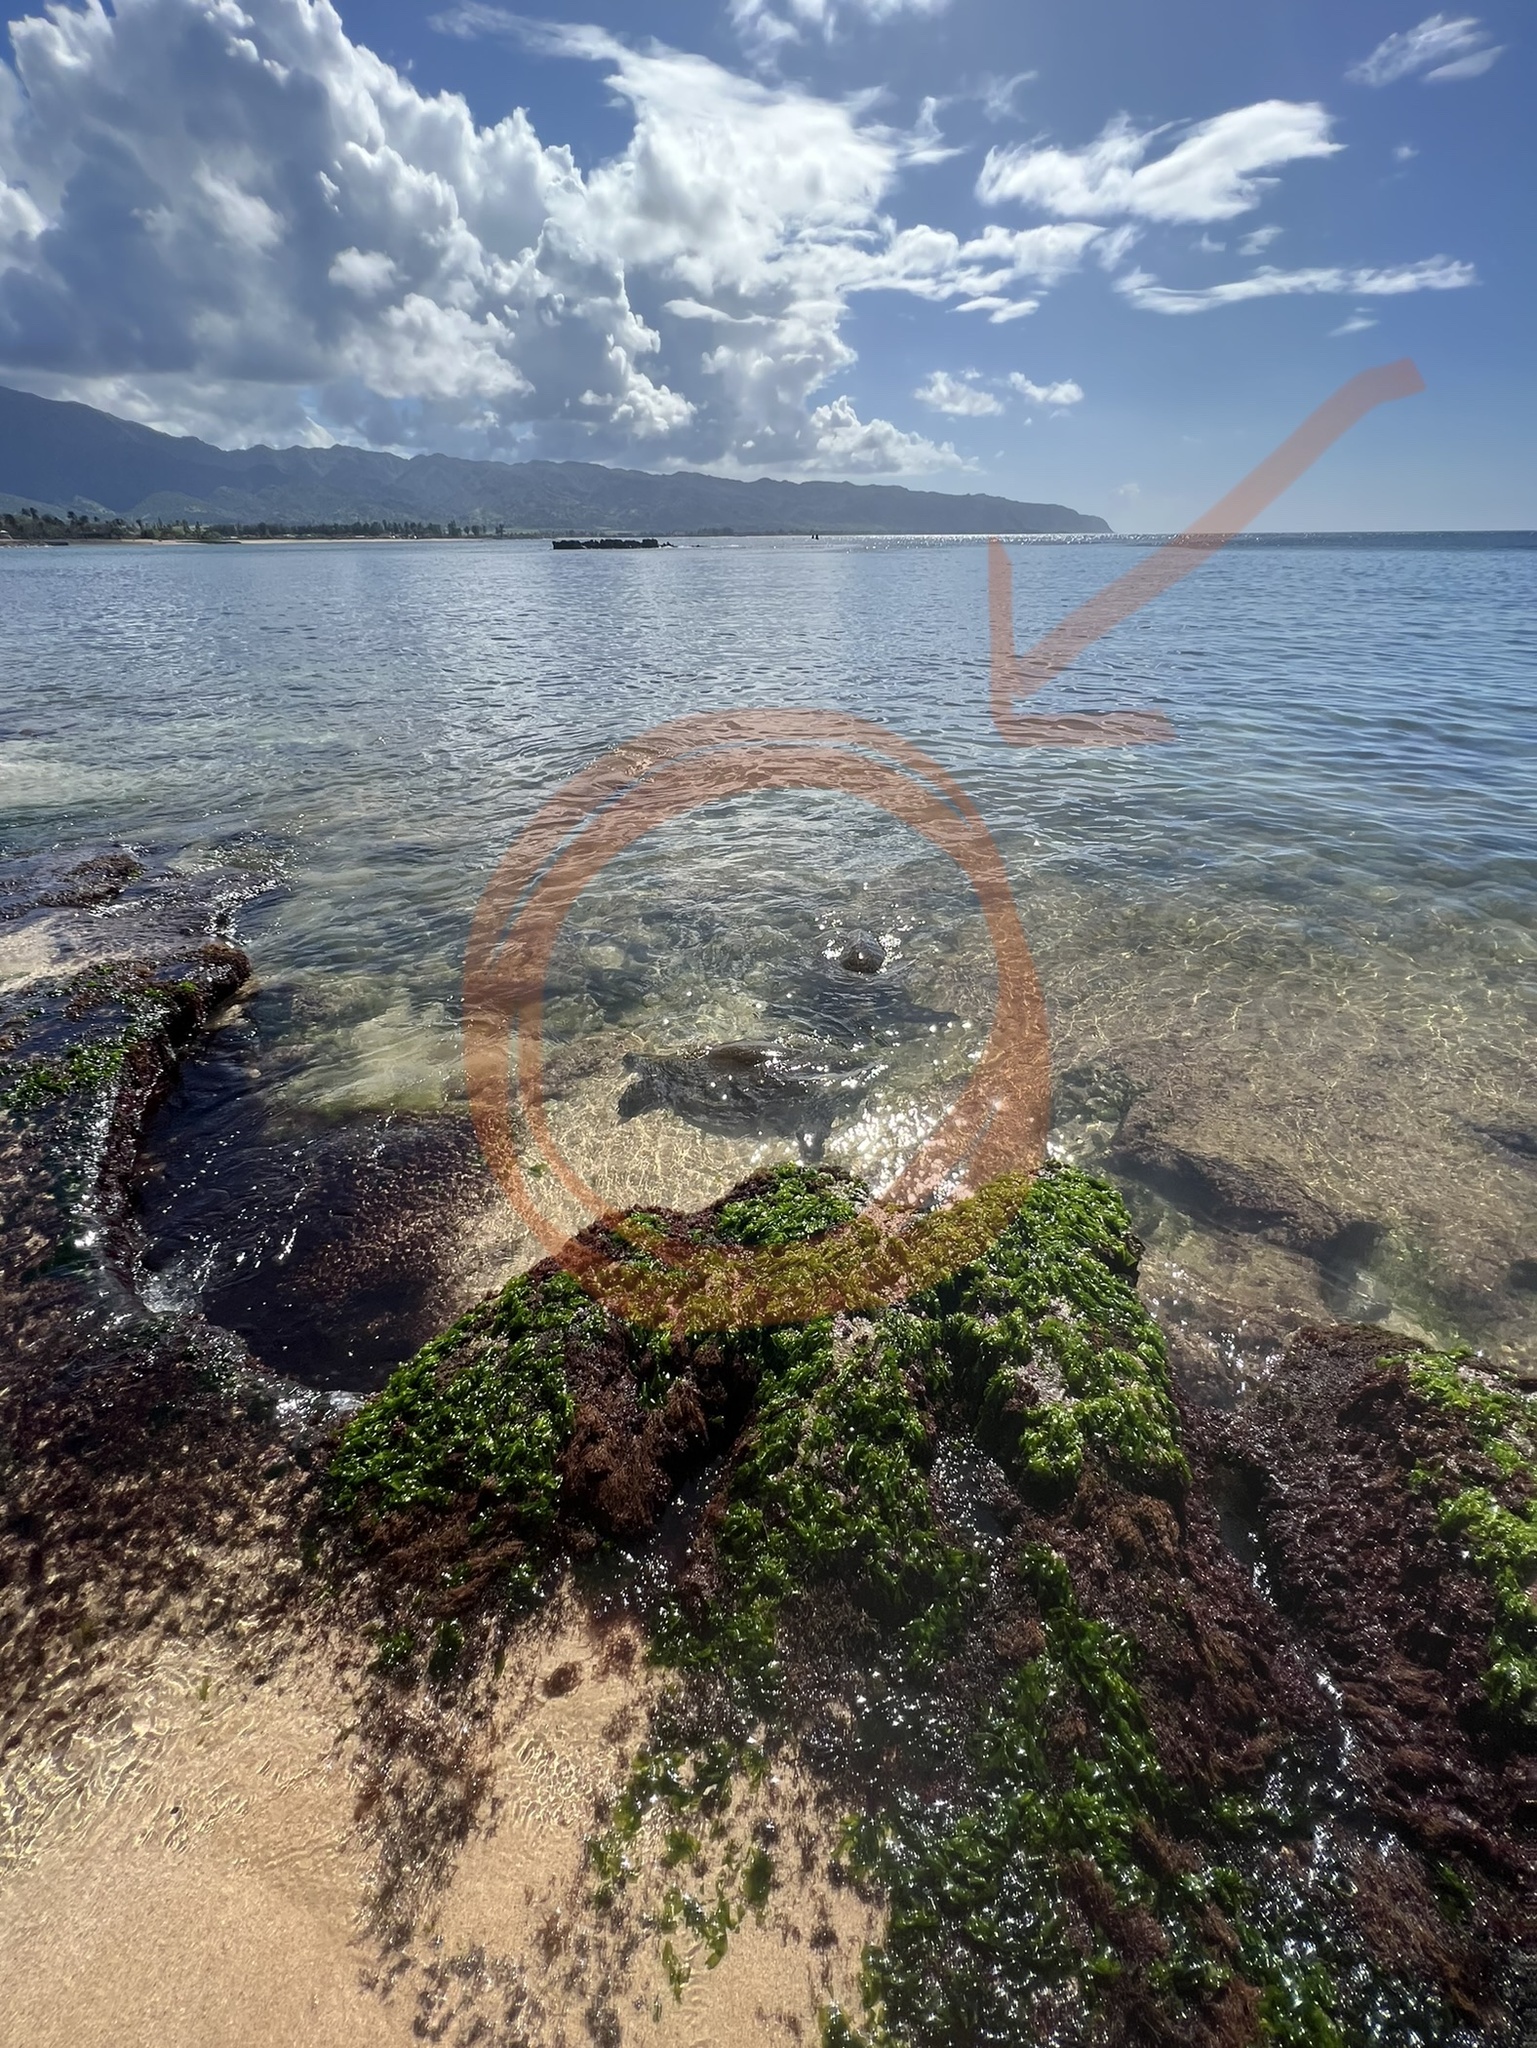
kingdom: Animalia
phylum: Chordata
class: Testudines
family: Cheloniidae
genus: Chelonia
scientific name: Chelonia mydas
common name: Green turtle
